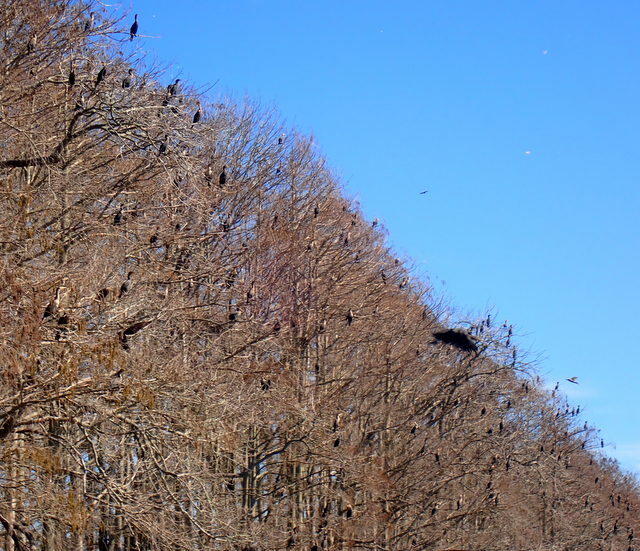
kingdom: Animalia
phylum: Chordata
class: Aves
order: Suliformes
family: Phalacrocoracidae
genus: Phalacrocorax
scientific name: Phalacrocorax auritus
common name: Double-crested cormorant
